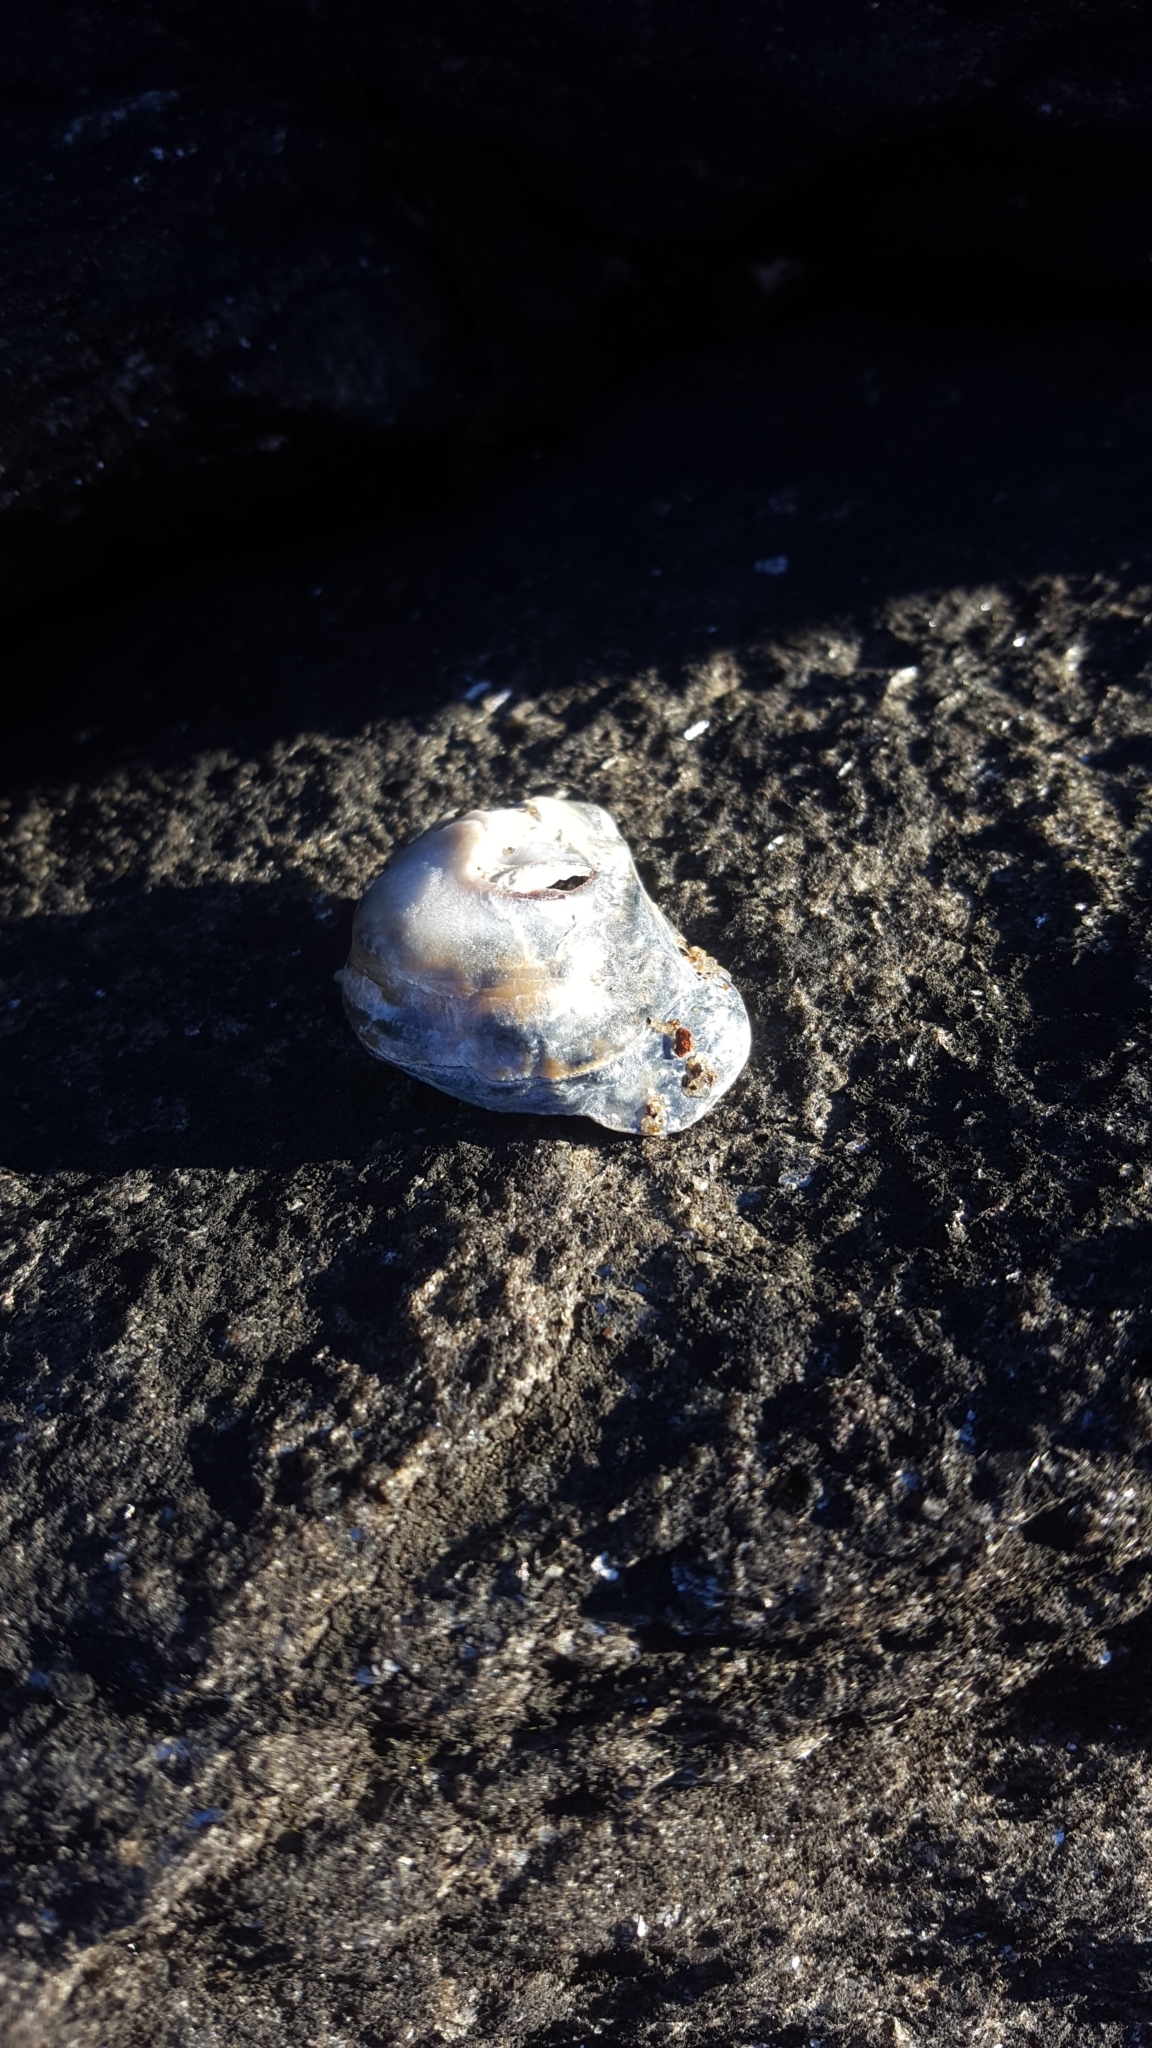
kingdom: Animalia
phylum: Mollusca
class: Bivalvia
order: Ostreida
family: Ostreidae
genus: Crassostrea
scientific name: Crassostrea virginica
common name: American oyster
